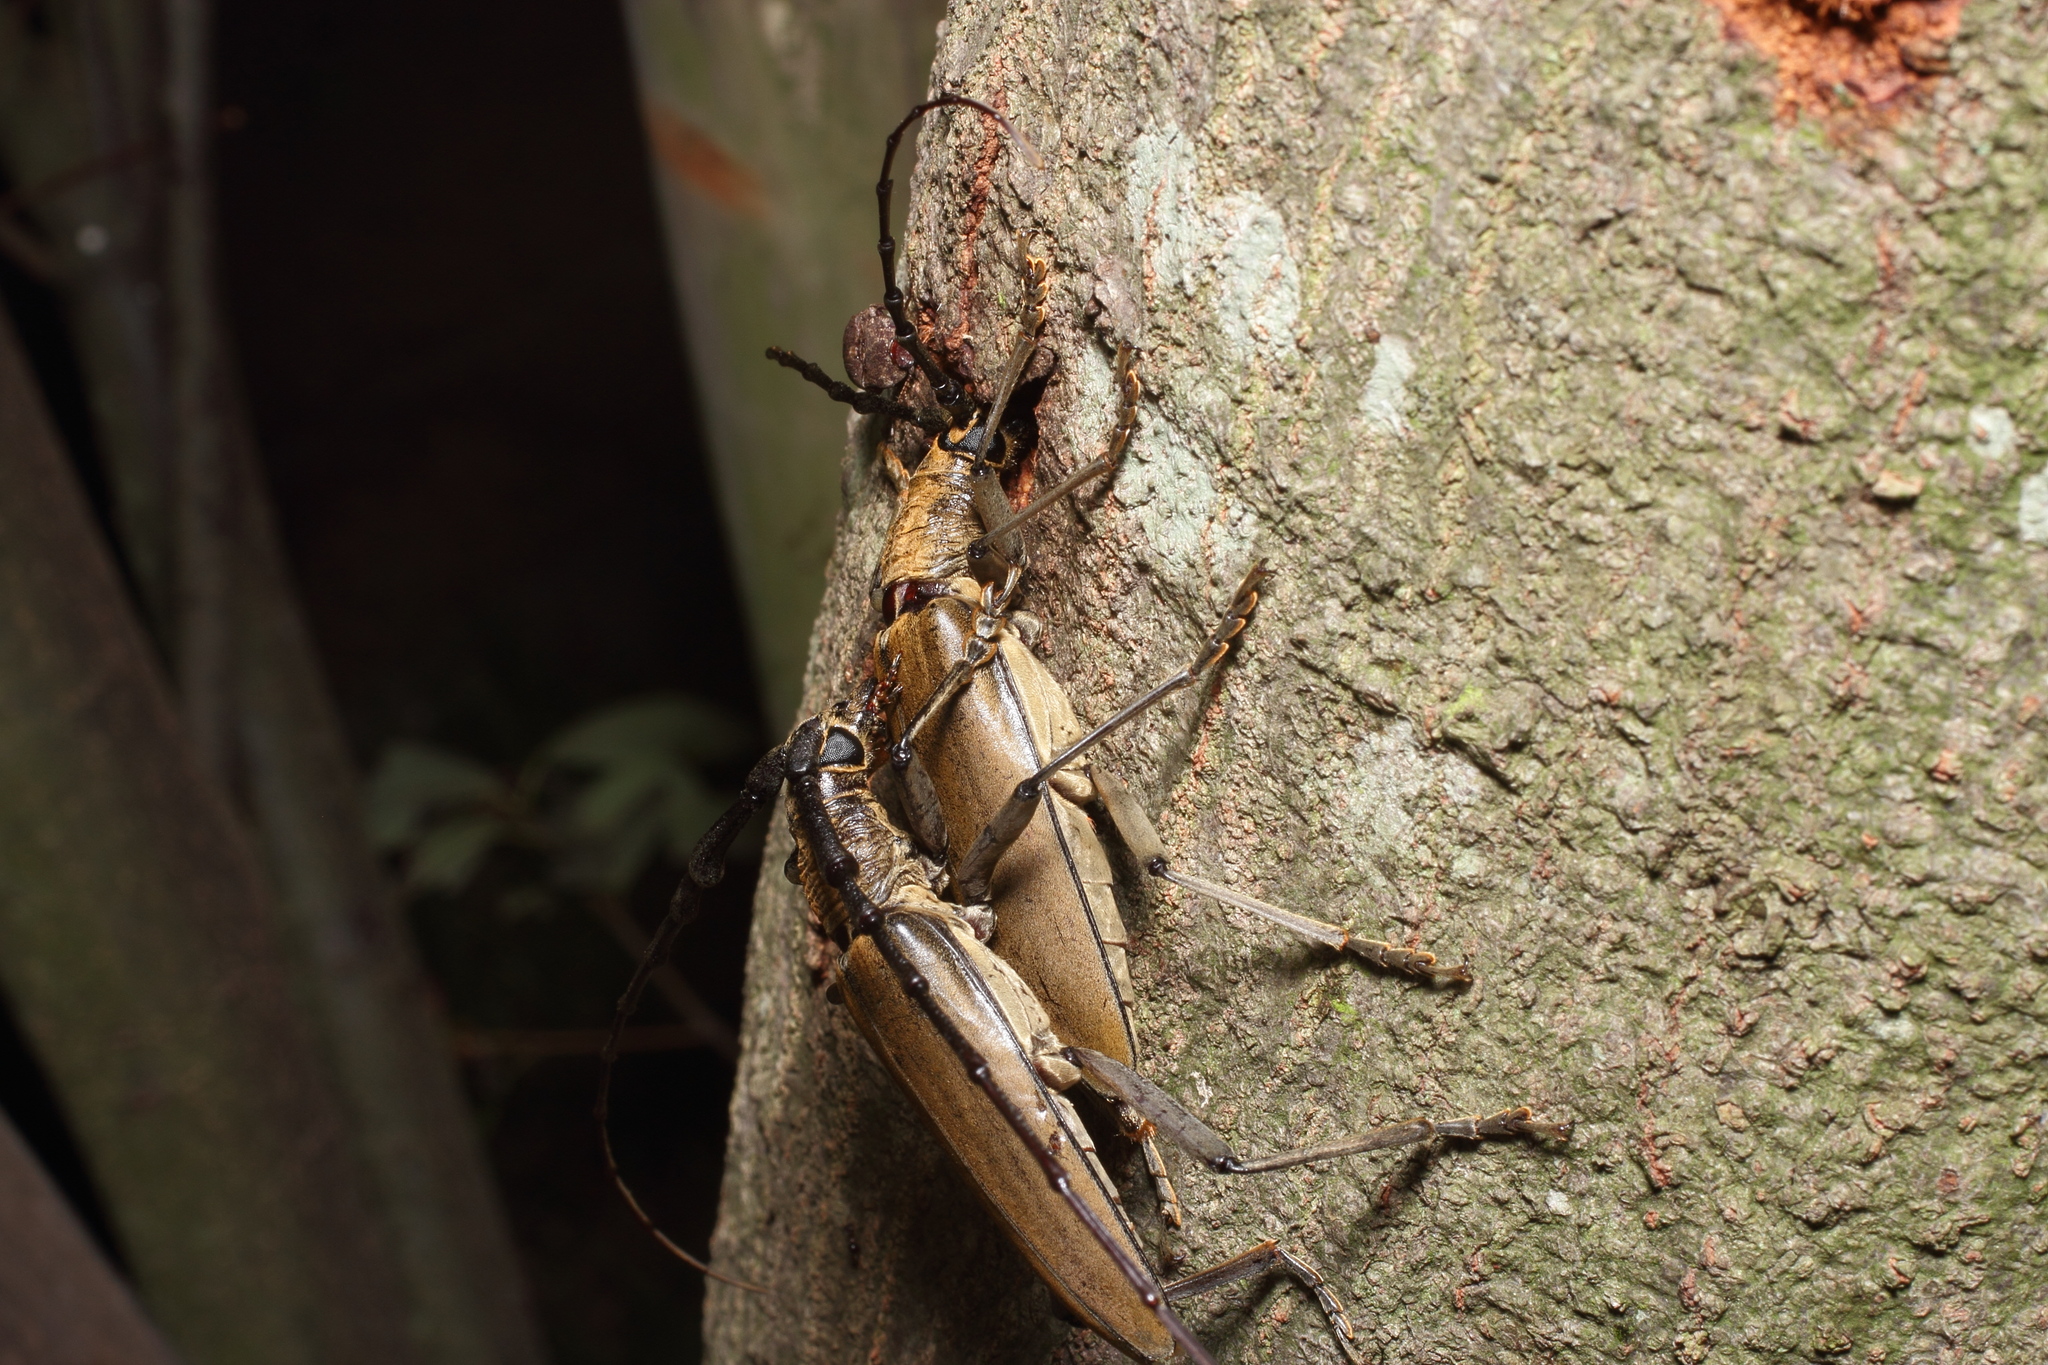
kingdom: Animalia
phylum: Arthropoda
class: Insecta
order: Coleoptera
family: Cerambycidae
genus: Neocerambyx
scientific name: Neocerambyx raddei
